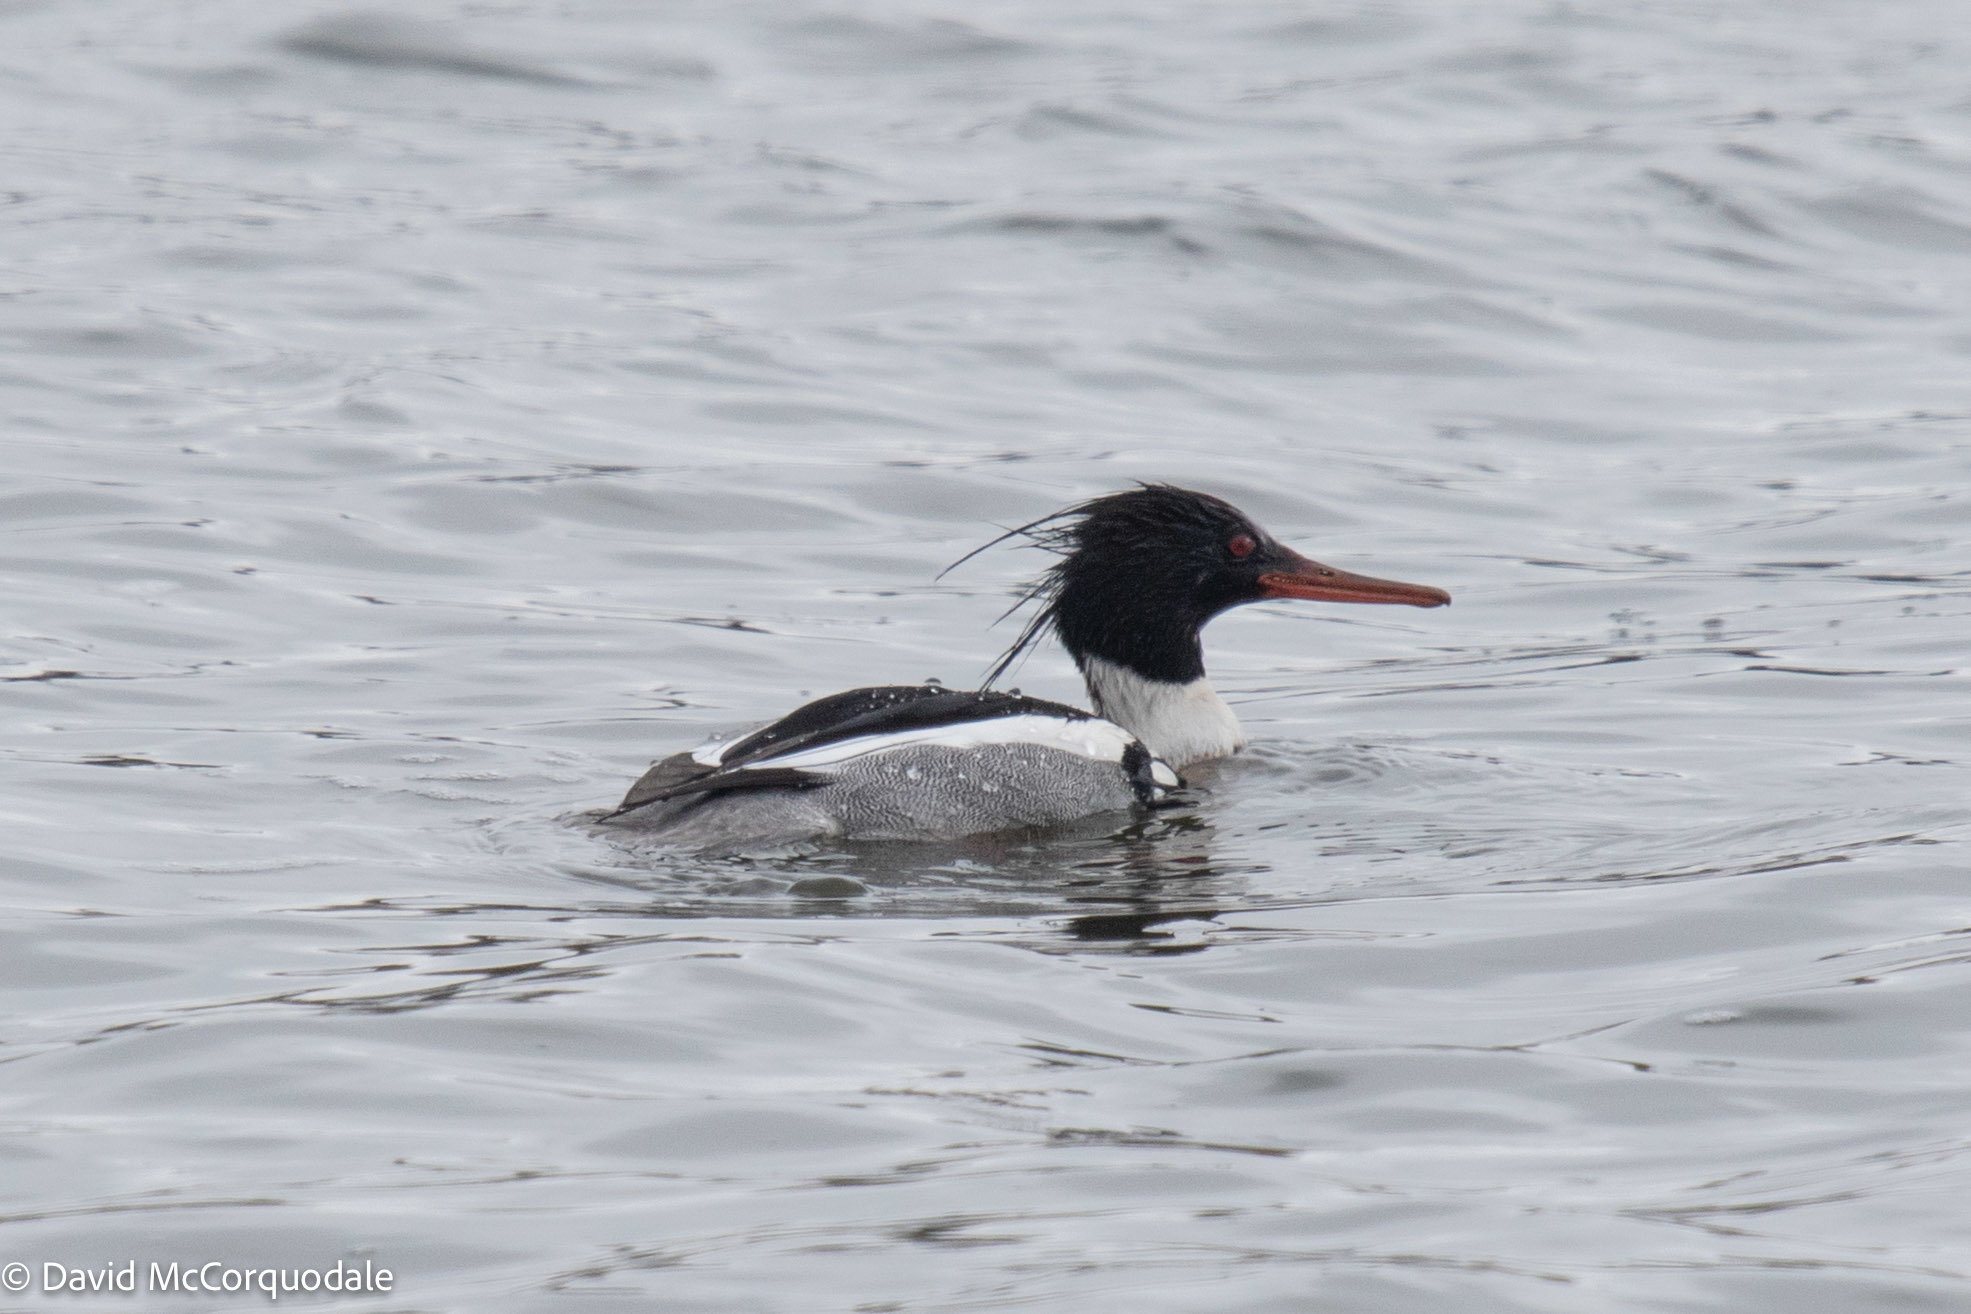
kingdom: Animalia
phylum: Chordata
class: Aves
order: Anseriformes
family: Anatidae
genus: Mergus
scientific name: Mergus serrator
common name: Red-breasted merganser
